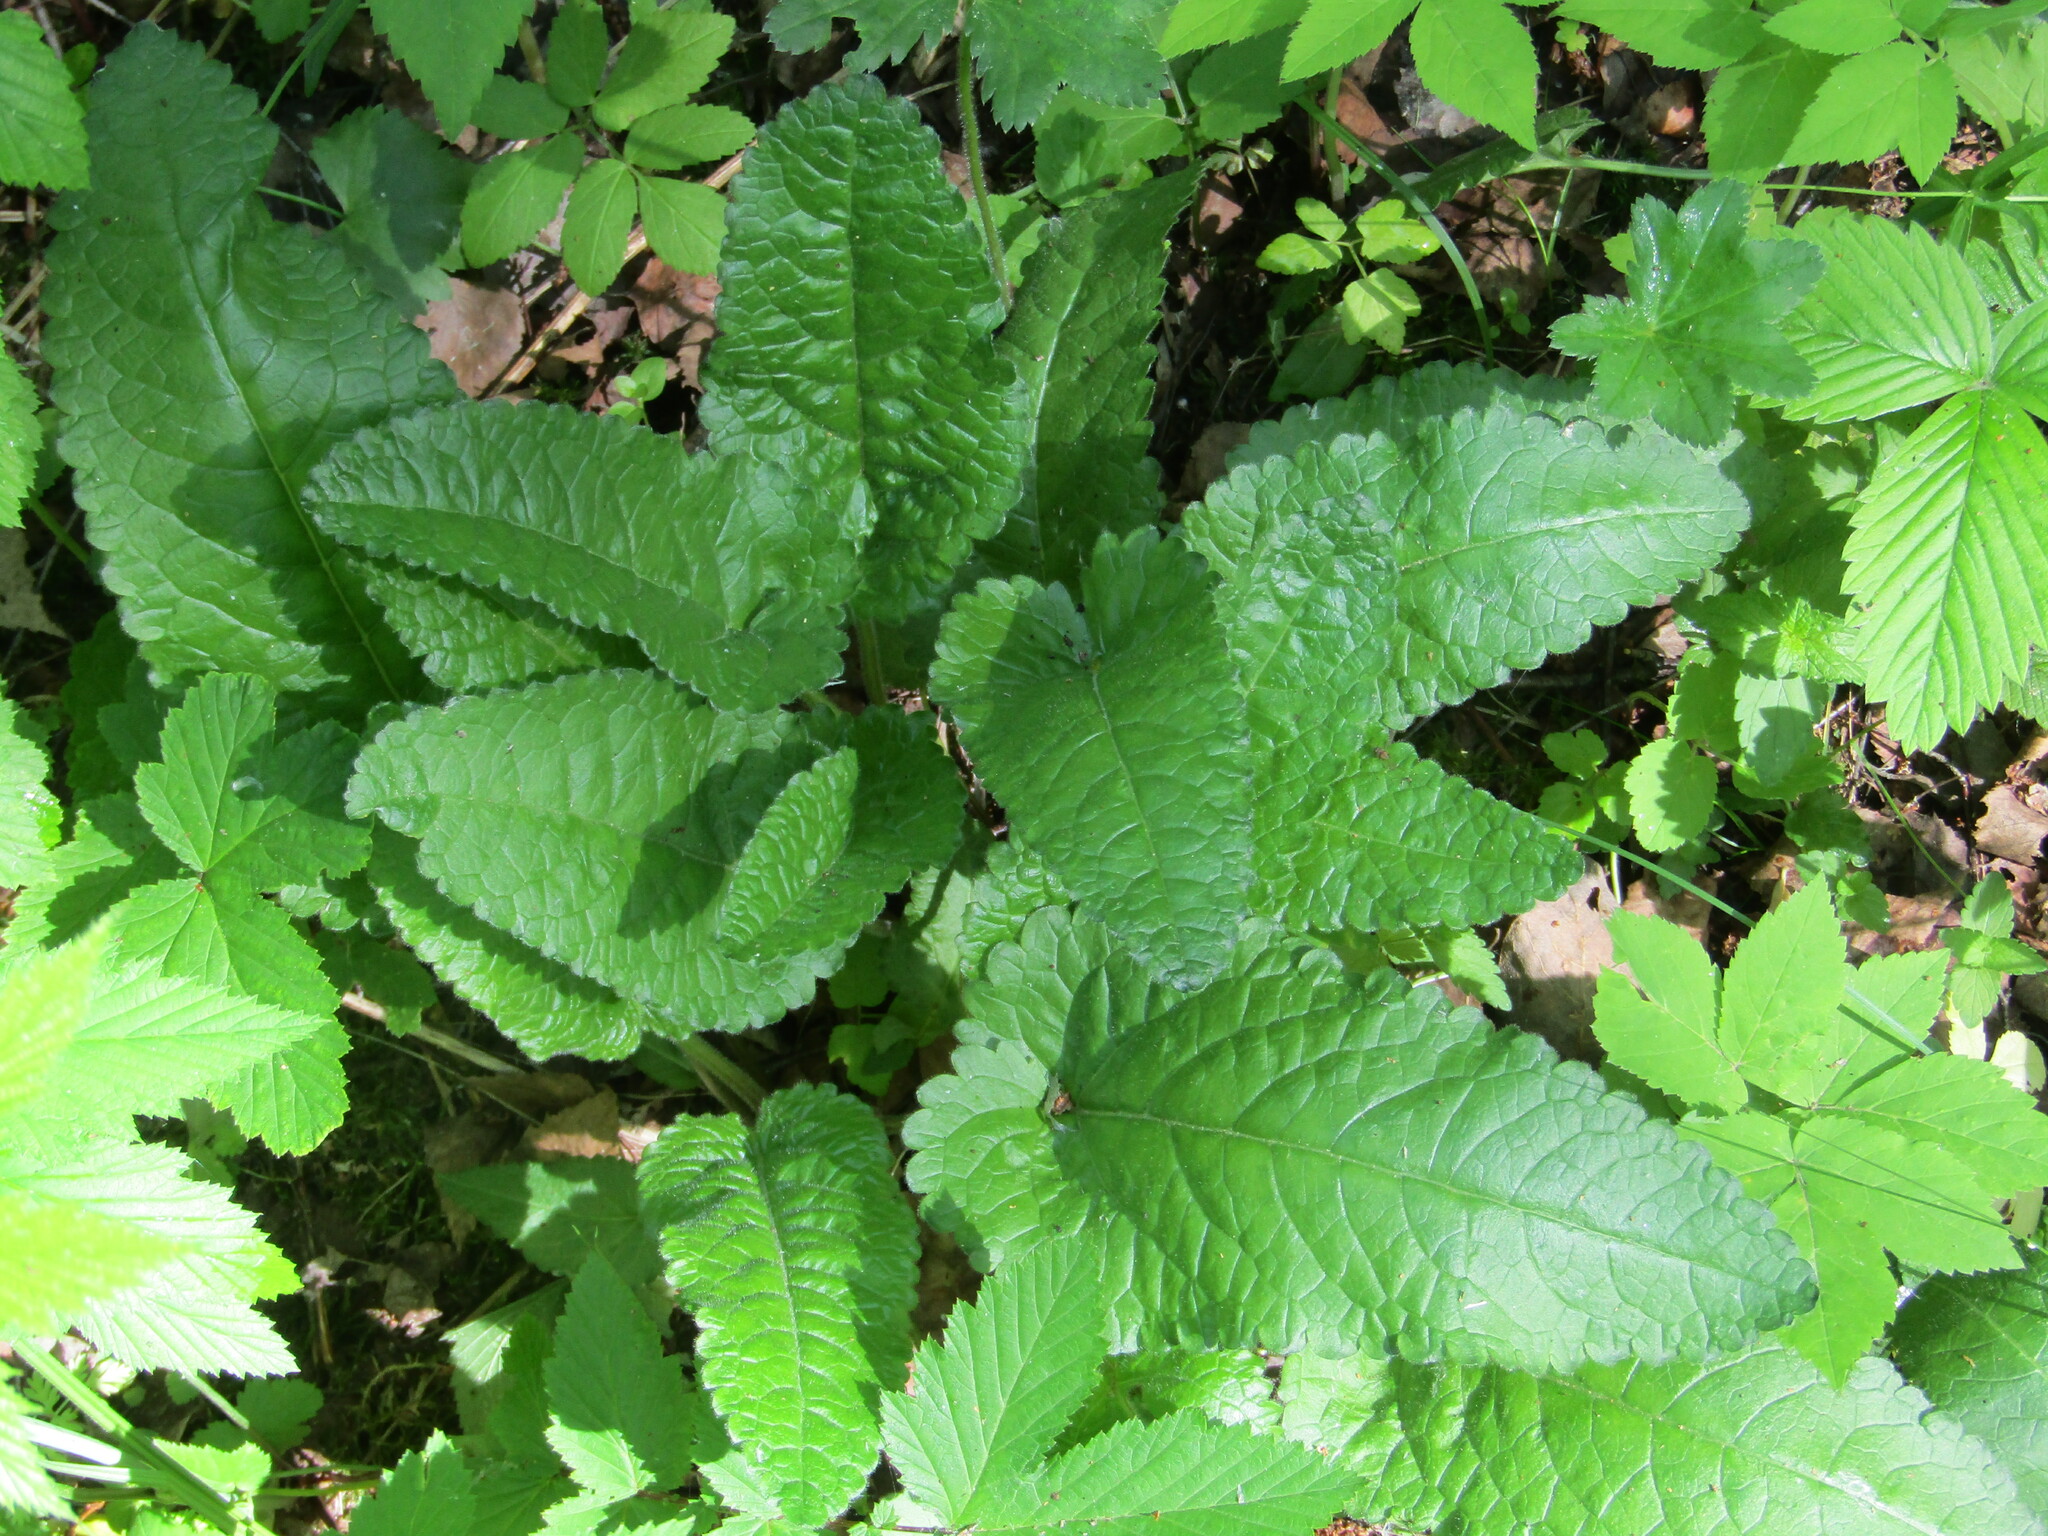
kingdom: Plantae
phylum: Tracheophyta
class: Magnoliopsida
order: Lamiales
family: Lamiaceae
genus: Betonica
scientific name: Betonica officinalis
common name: Bishop's-wort
